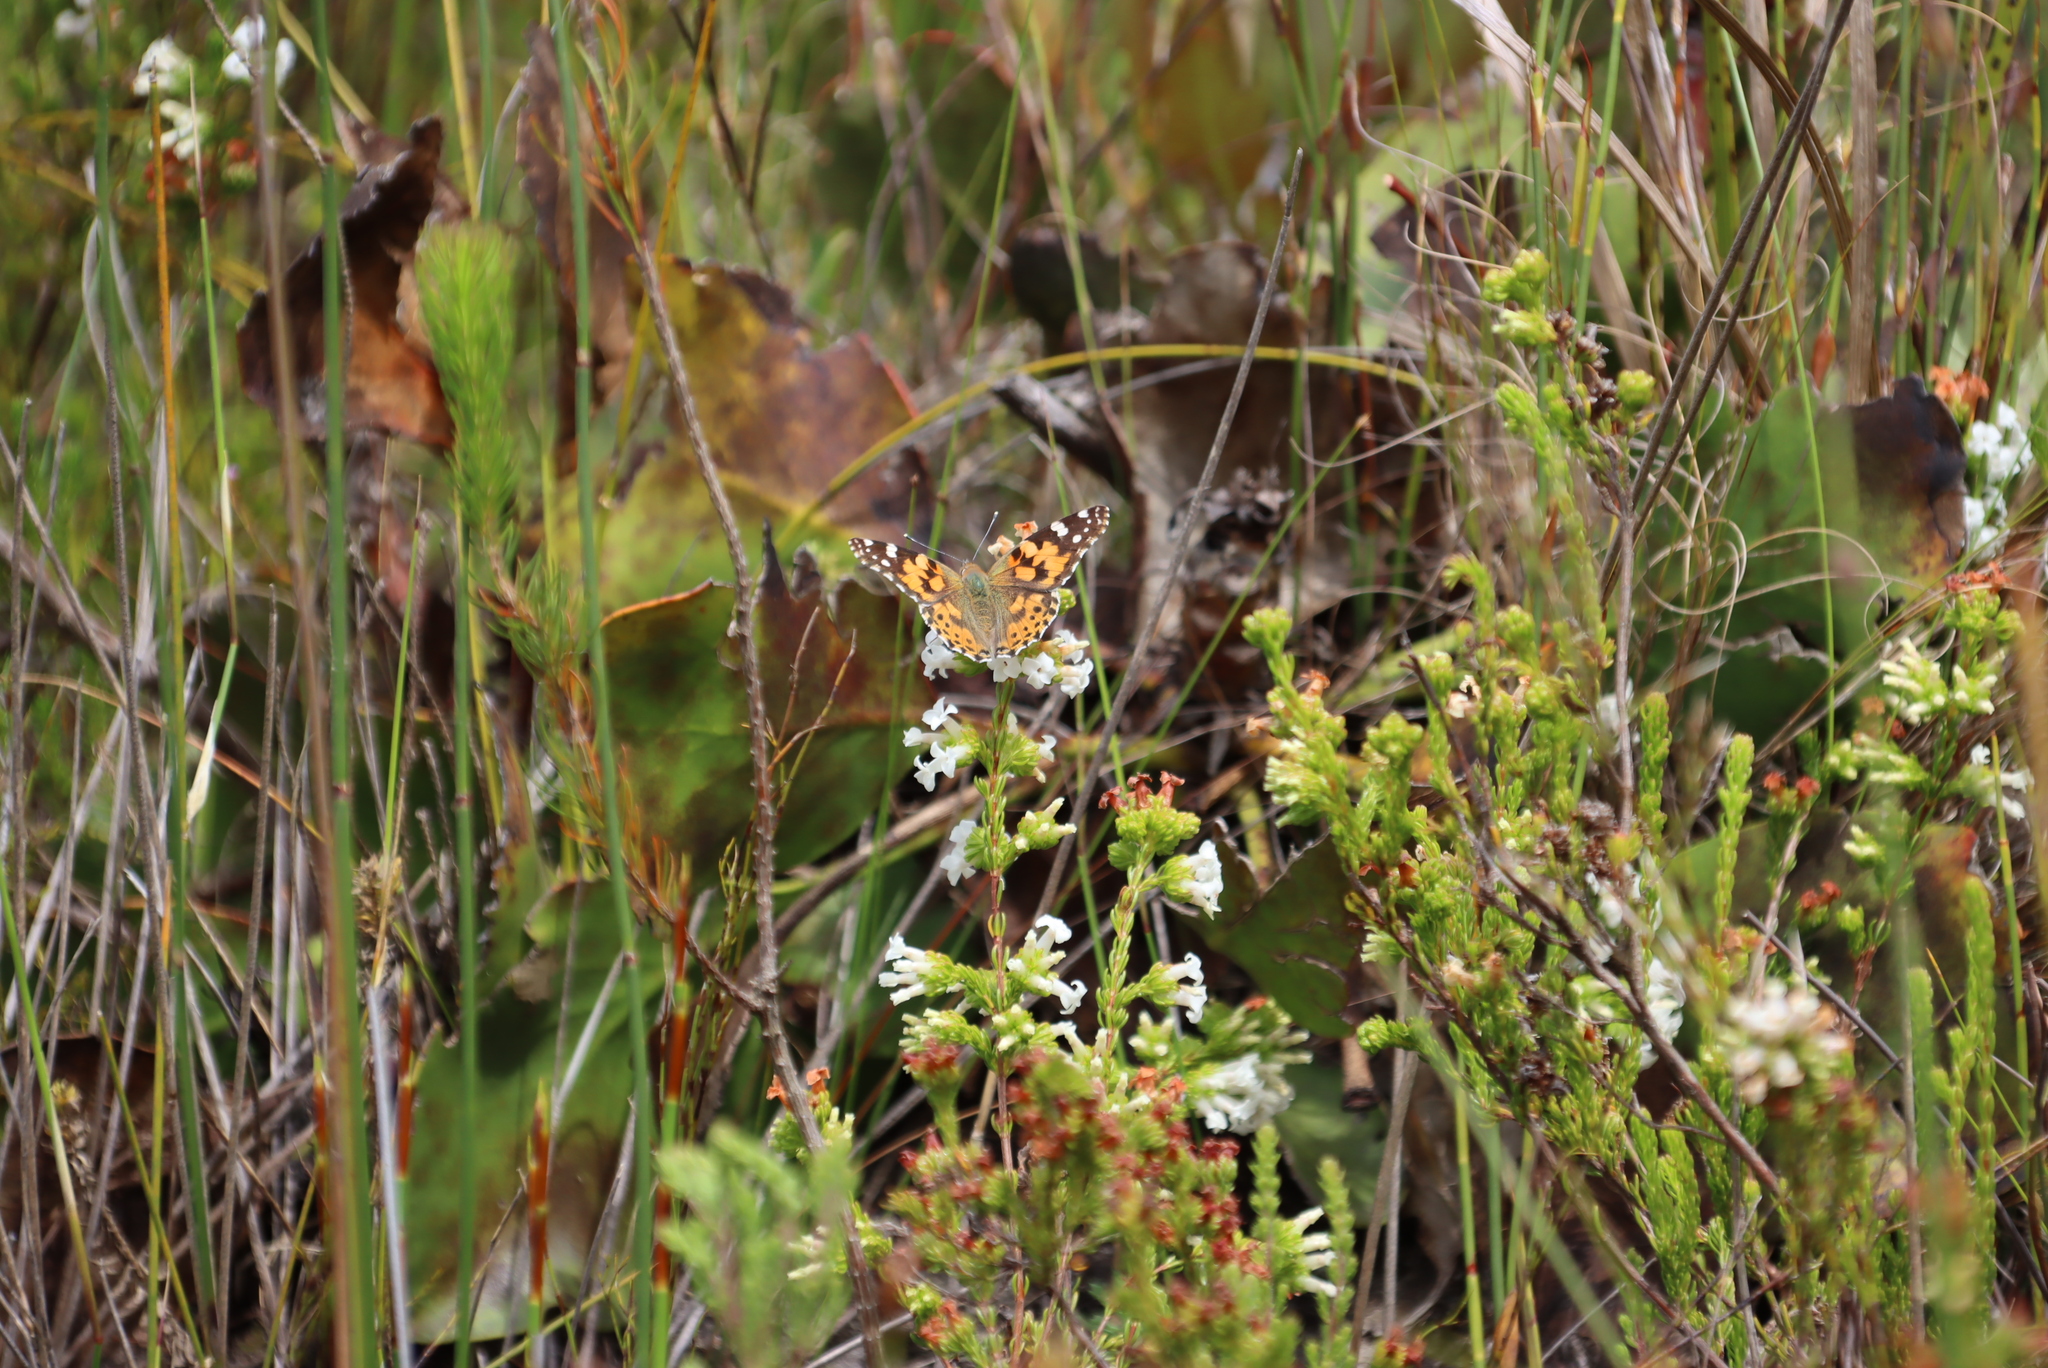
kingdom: Animalia
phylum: Arthropoda
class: Insecta
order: Lepidoptera
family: Nymphalidae
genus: Vanessa
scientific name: Vanessa cardui
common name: Painted lady
